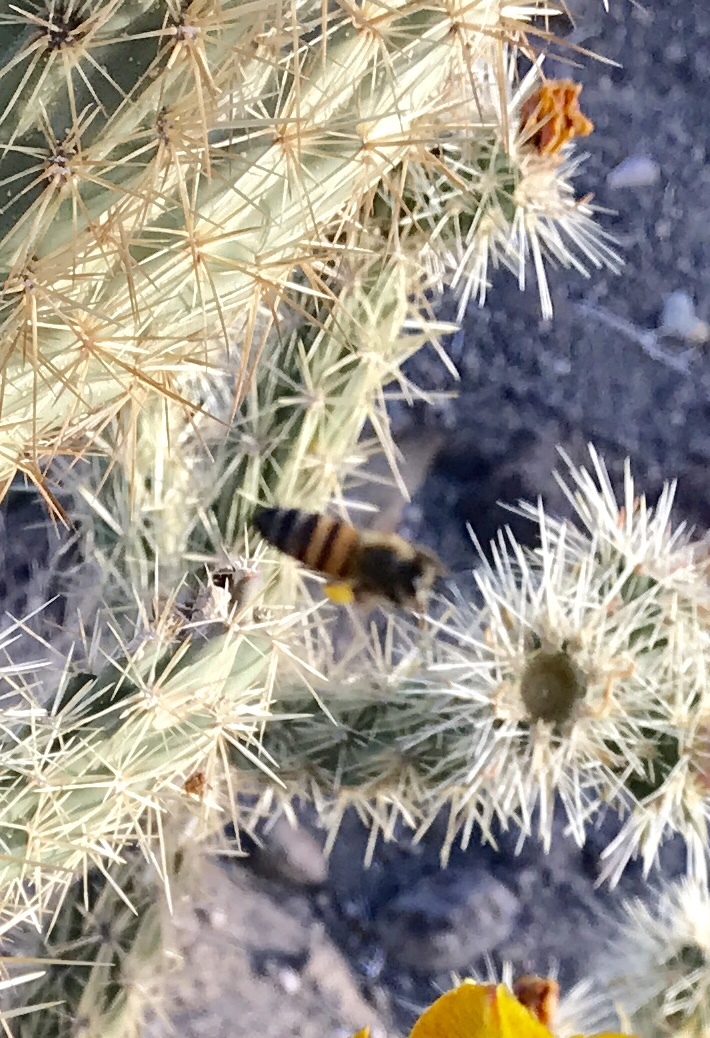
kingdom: Animalia
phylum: Arthropoda
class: Insecta
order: Hymenoptera
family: Apidae
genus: Apis
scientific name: Apis mellifera
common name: Honey bee
